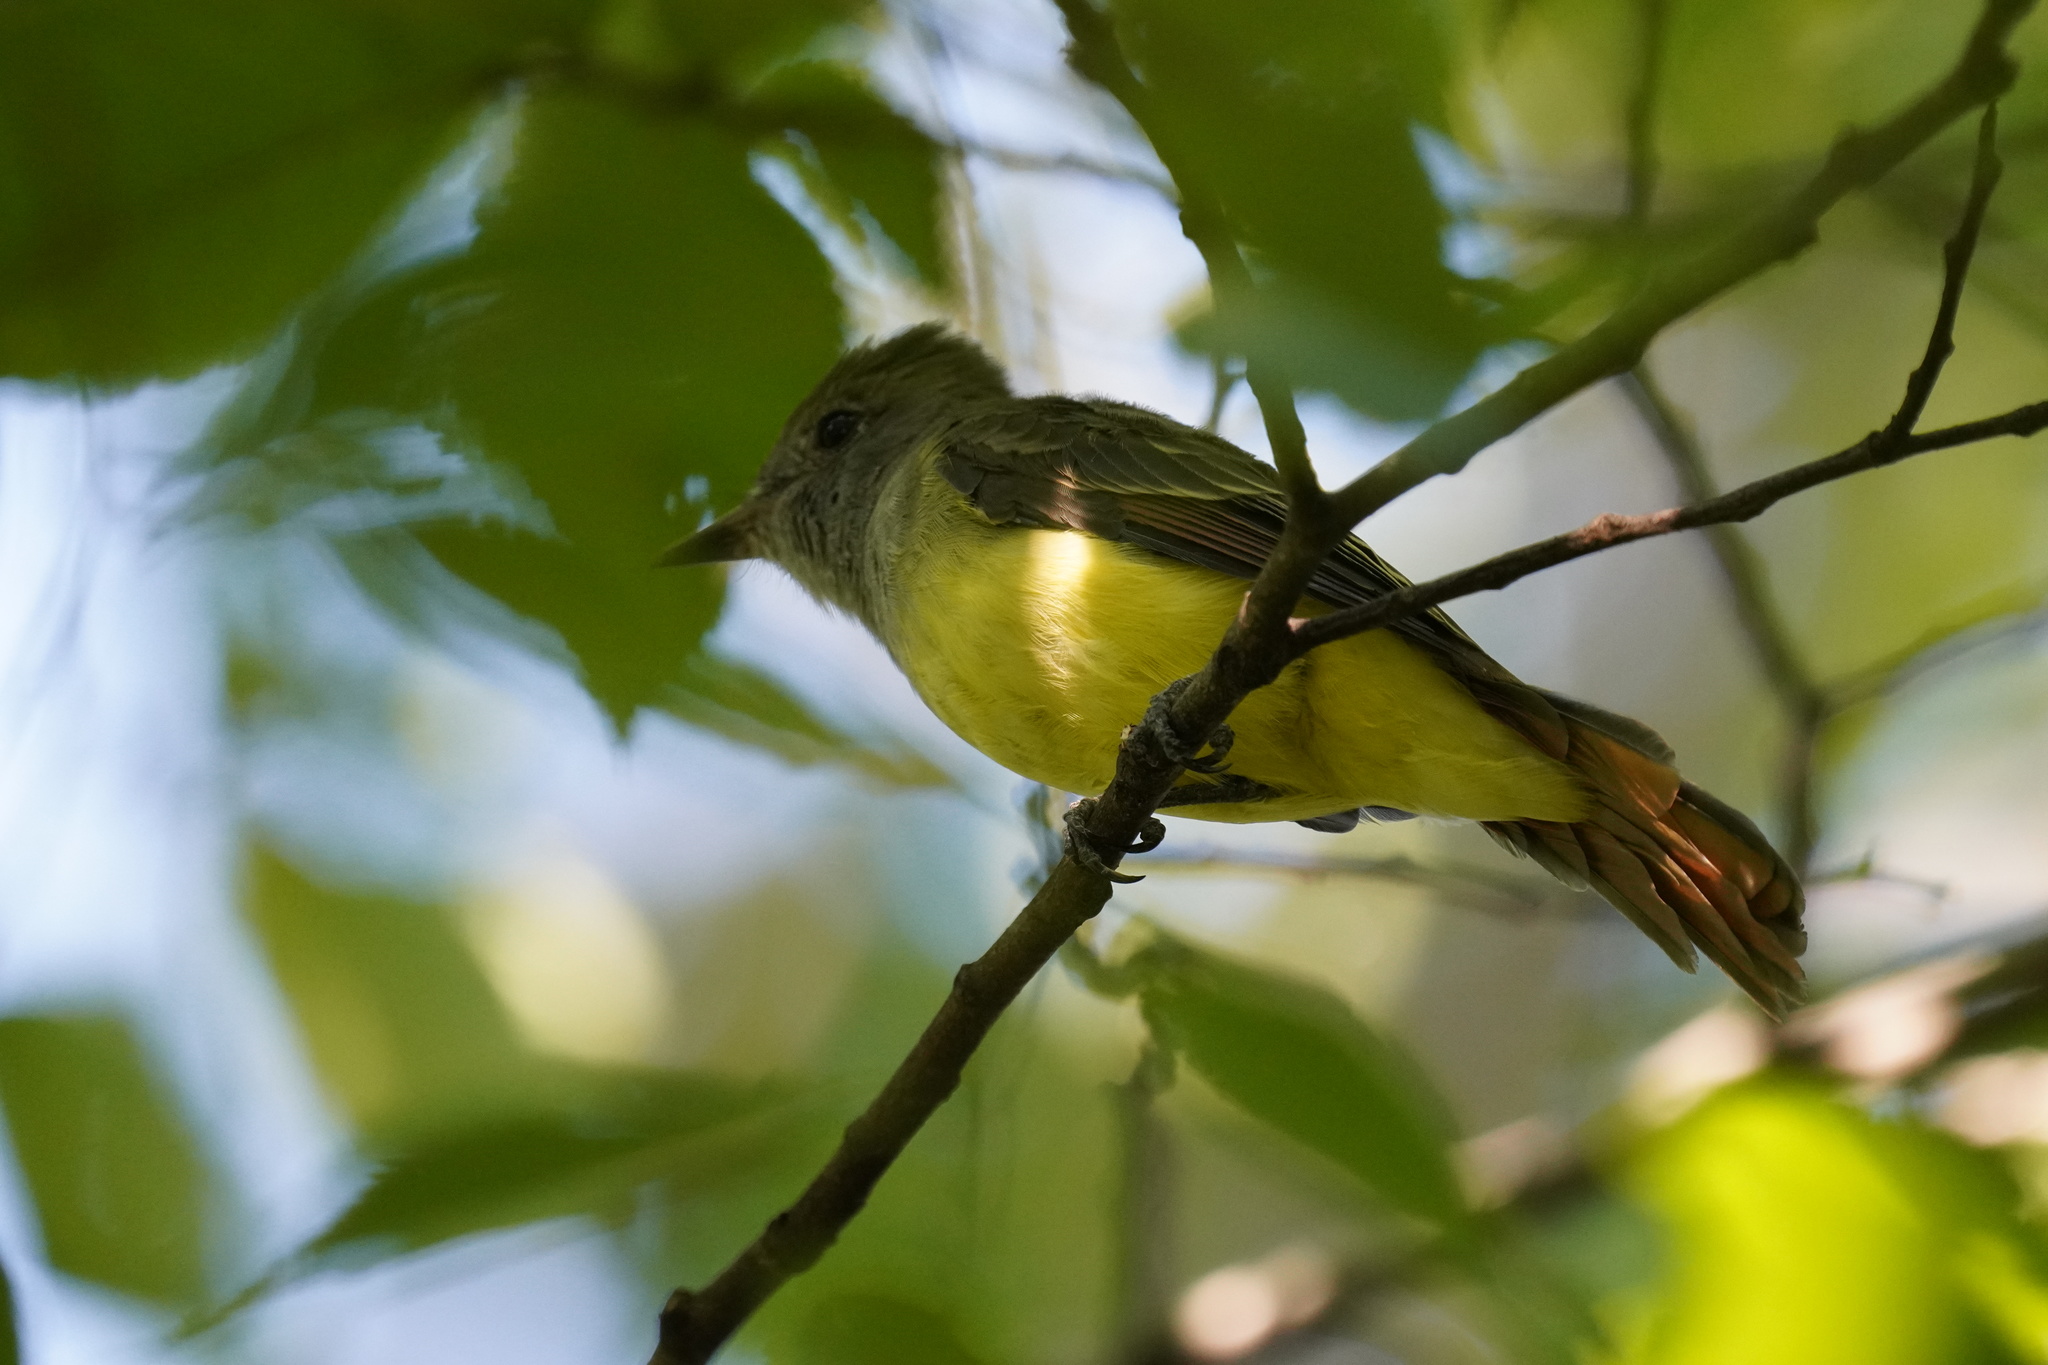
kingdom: Animalia
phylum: Chordata
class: Aves
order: Passeriformes
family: Tyrannidae
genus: Myiarchus
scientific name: Myiarchus crinitus
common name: Great crested flycatcher
